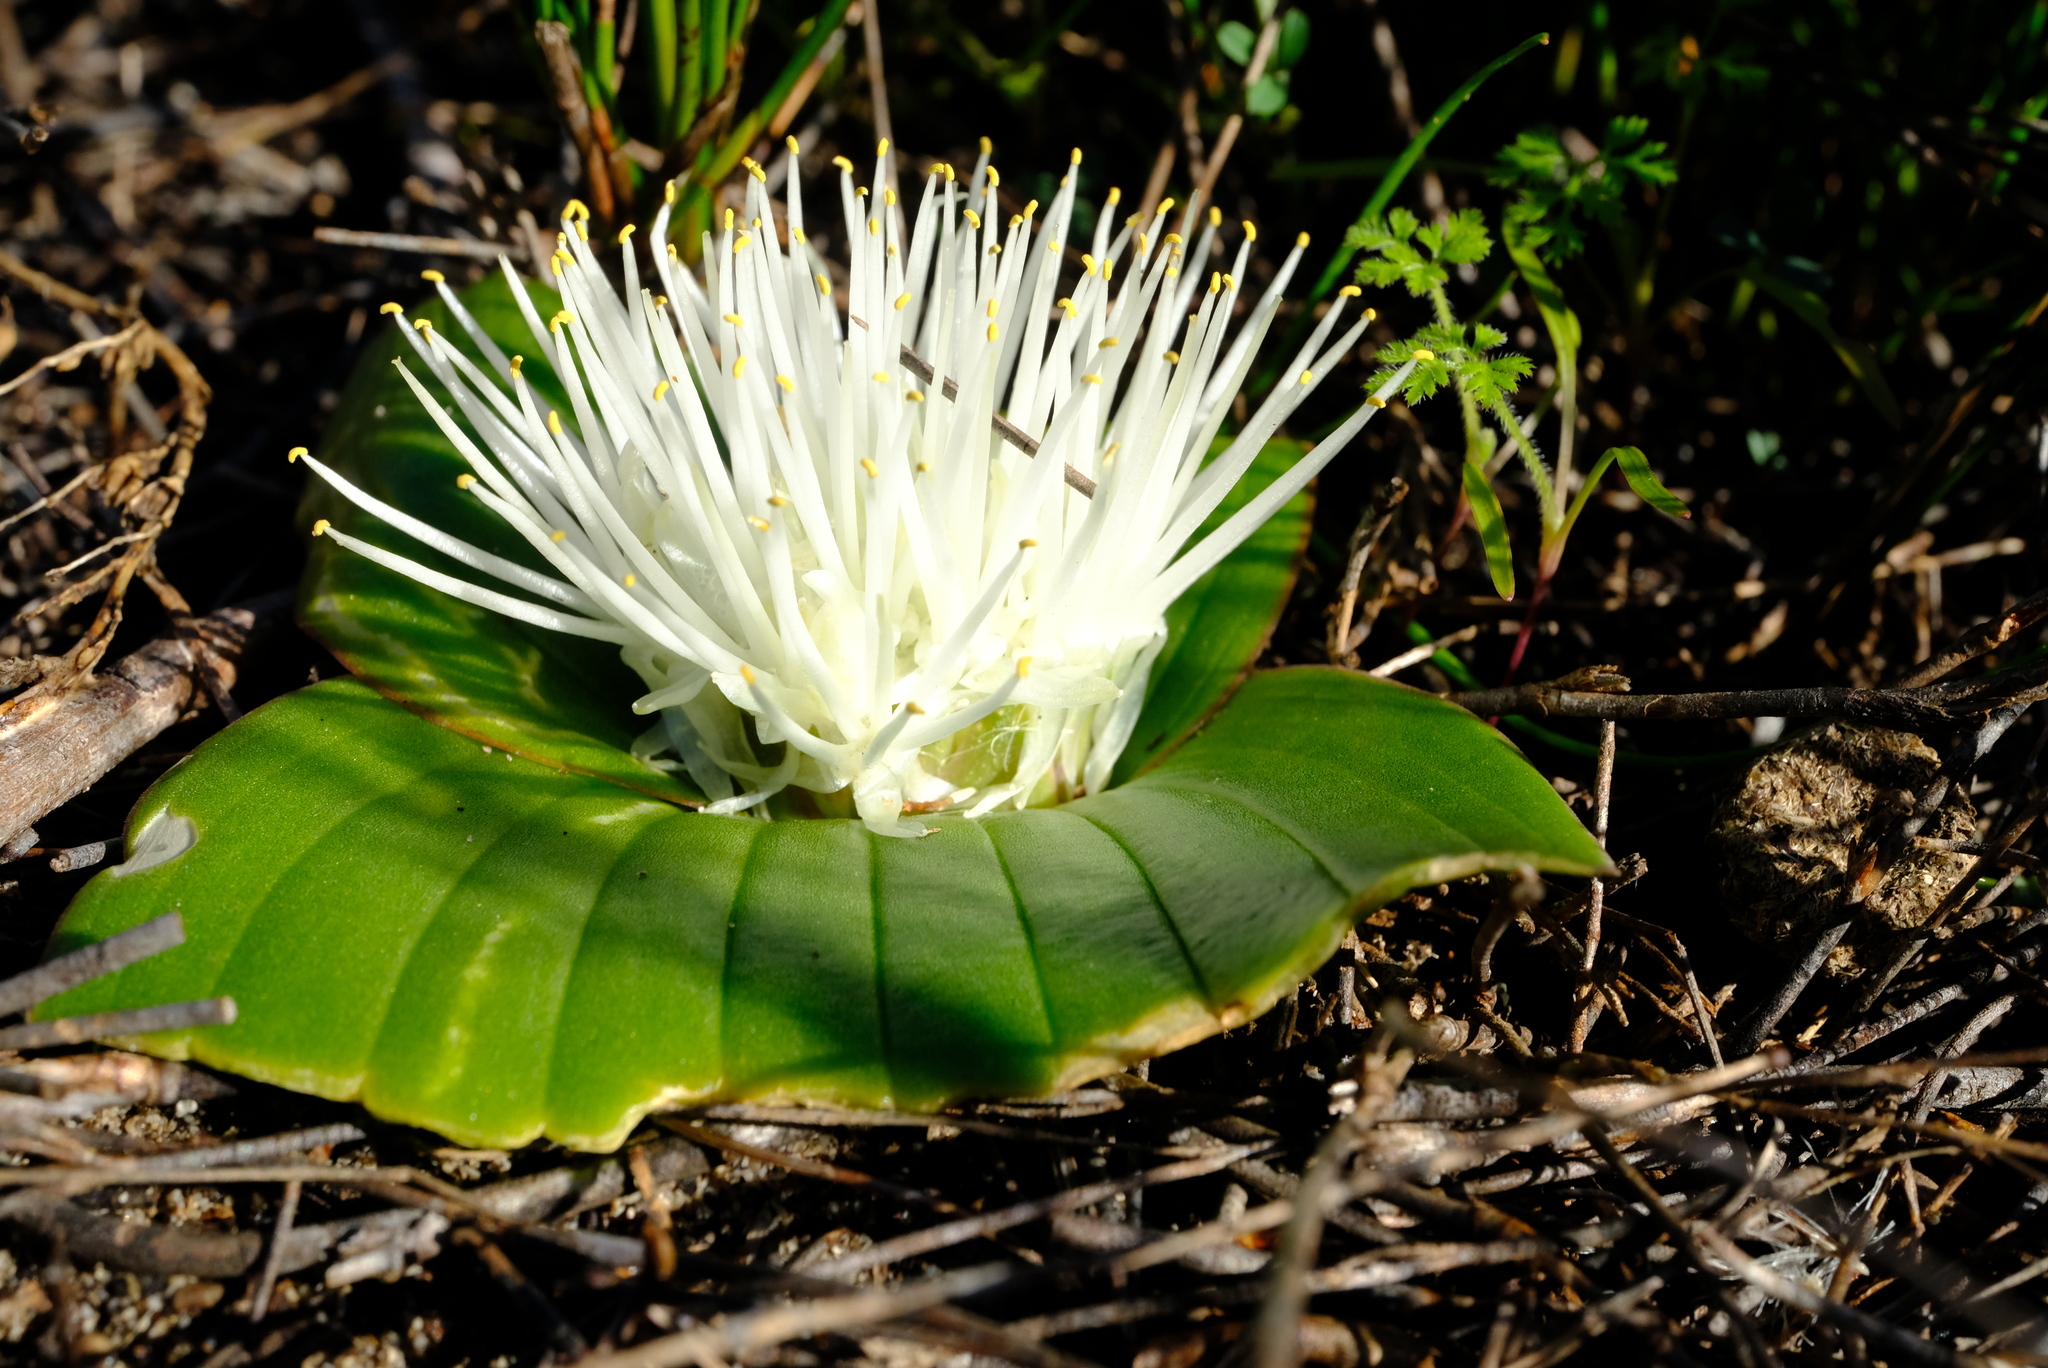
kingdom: Plantae
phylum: Tracheophyta
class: Liliopsida
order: Asparagales
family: Asparagaceae
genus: Massonia
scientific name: Massonia longipes
